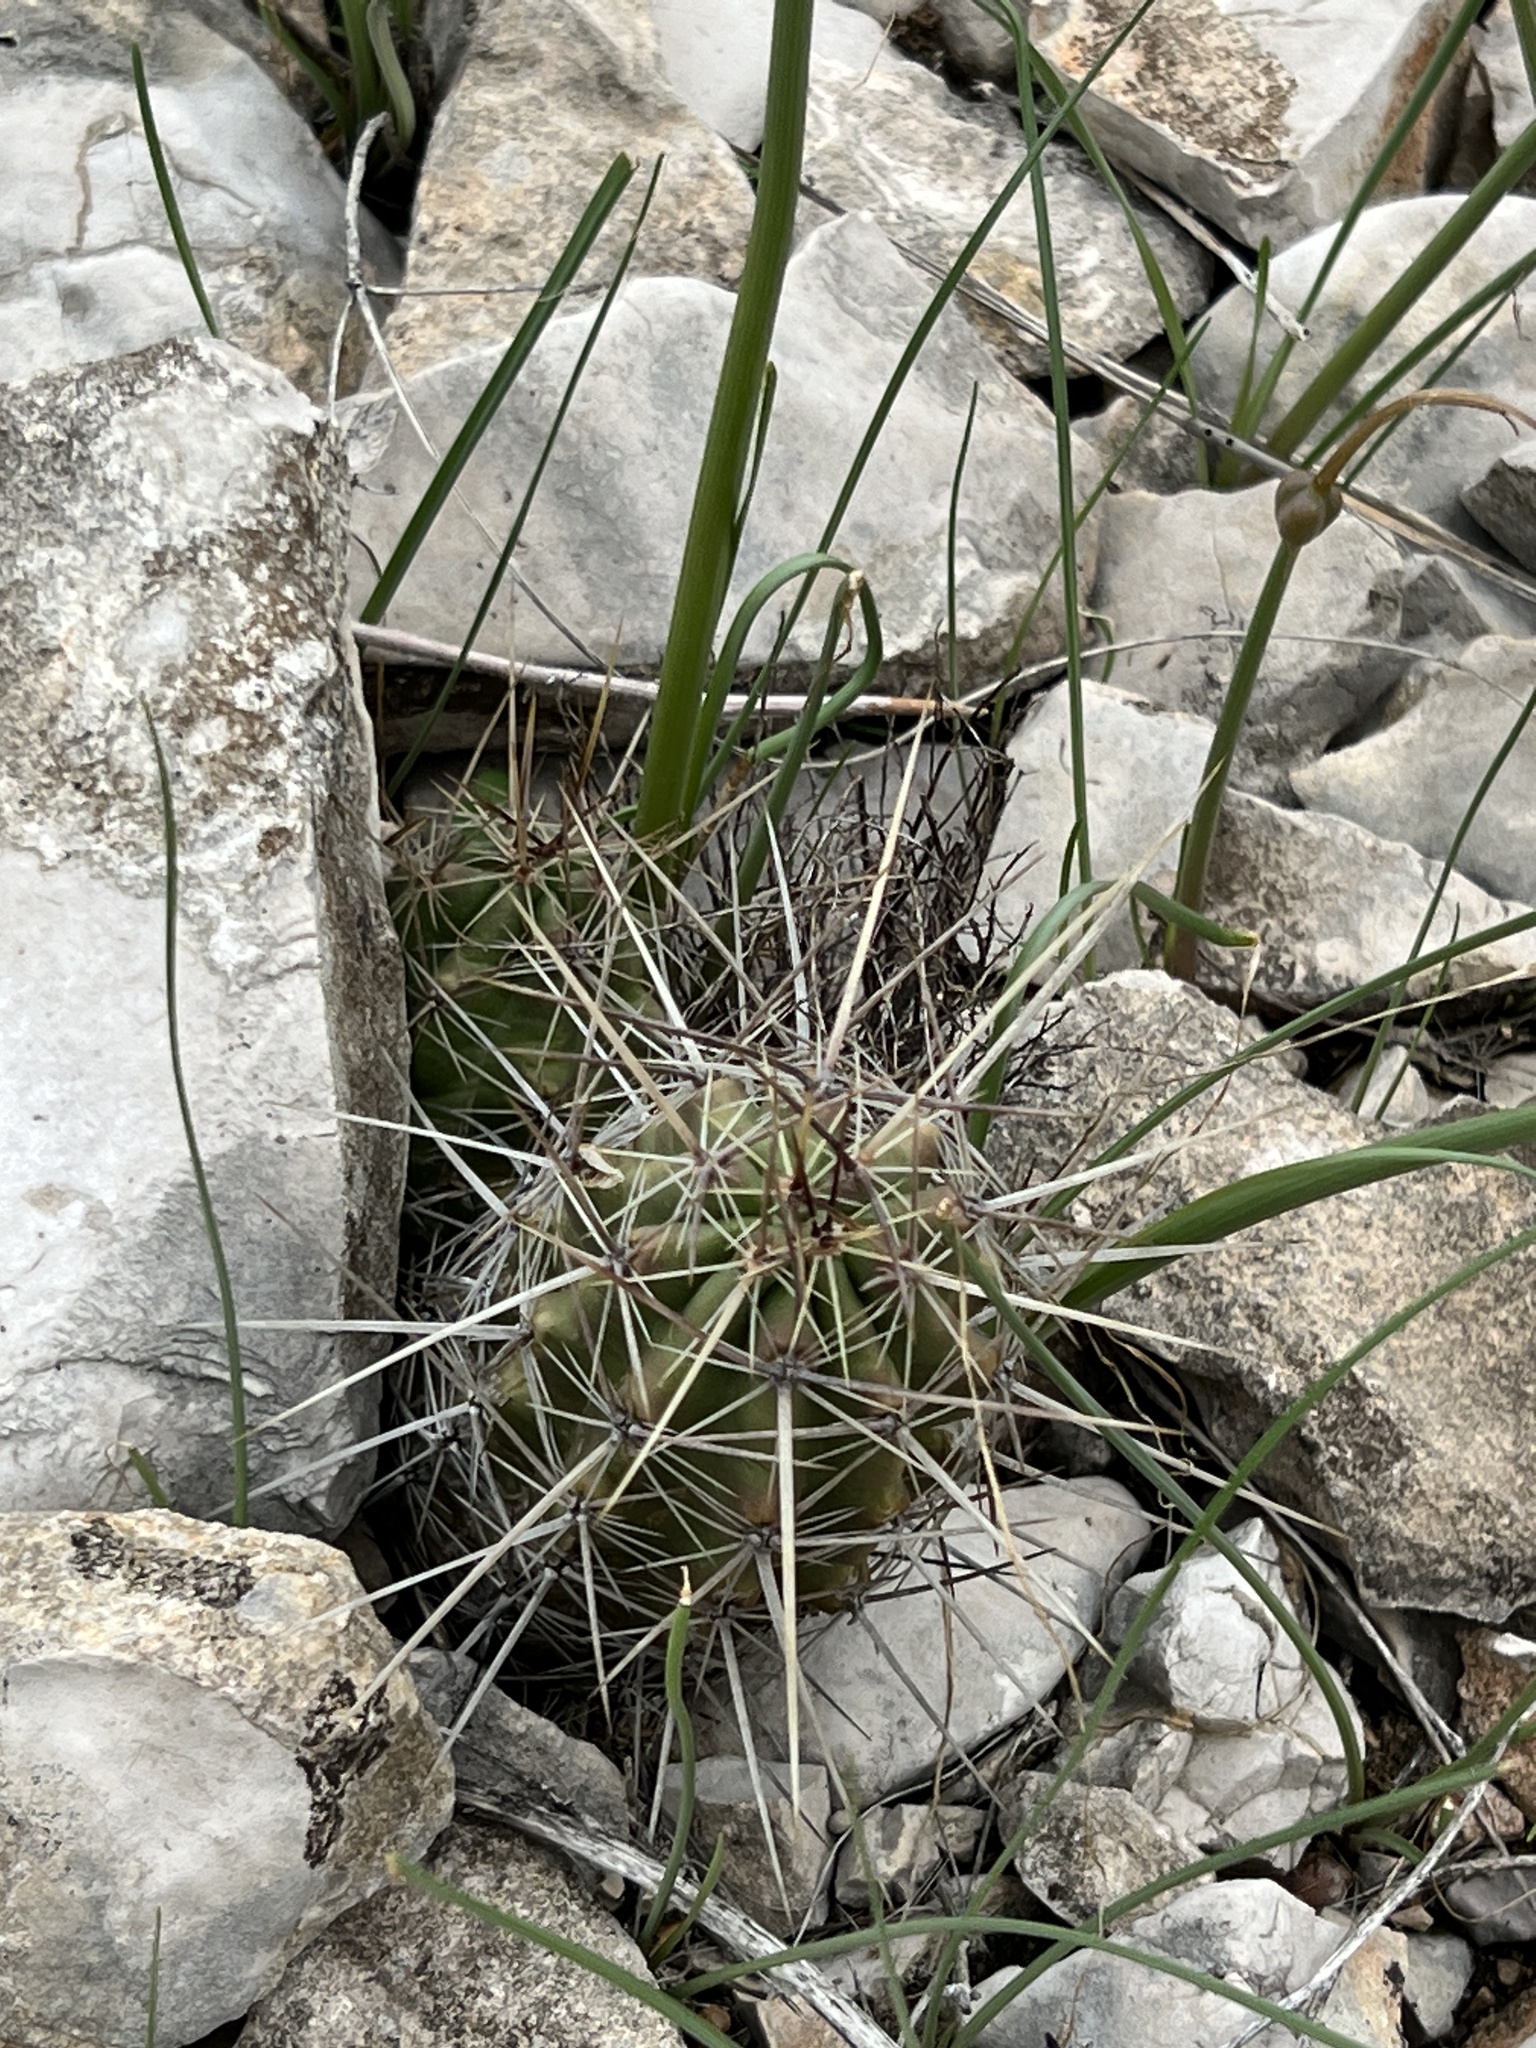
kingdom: Plantae
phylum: Tracheophyta
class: Magnoliopsida
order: Caryophyllales
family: Cactaceae
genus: Echinocereus
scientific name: Echinocereus enneacanthus
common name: Pitaya
